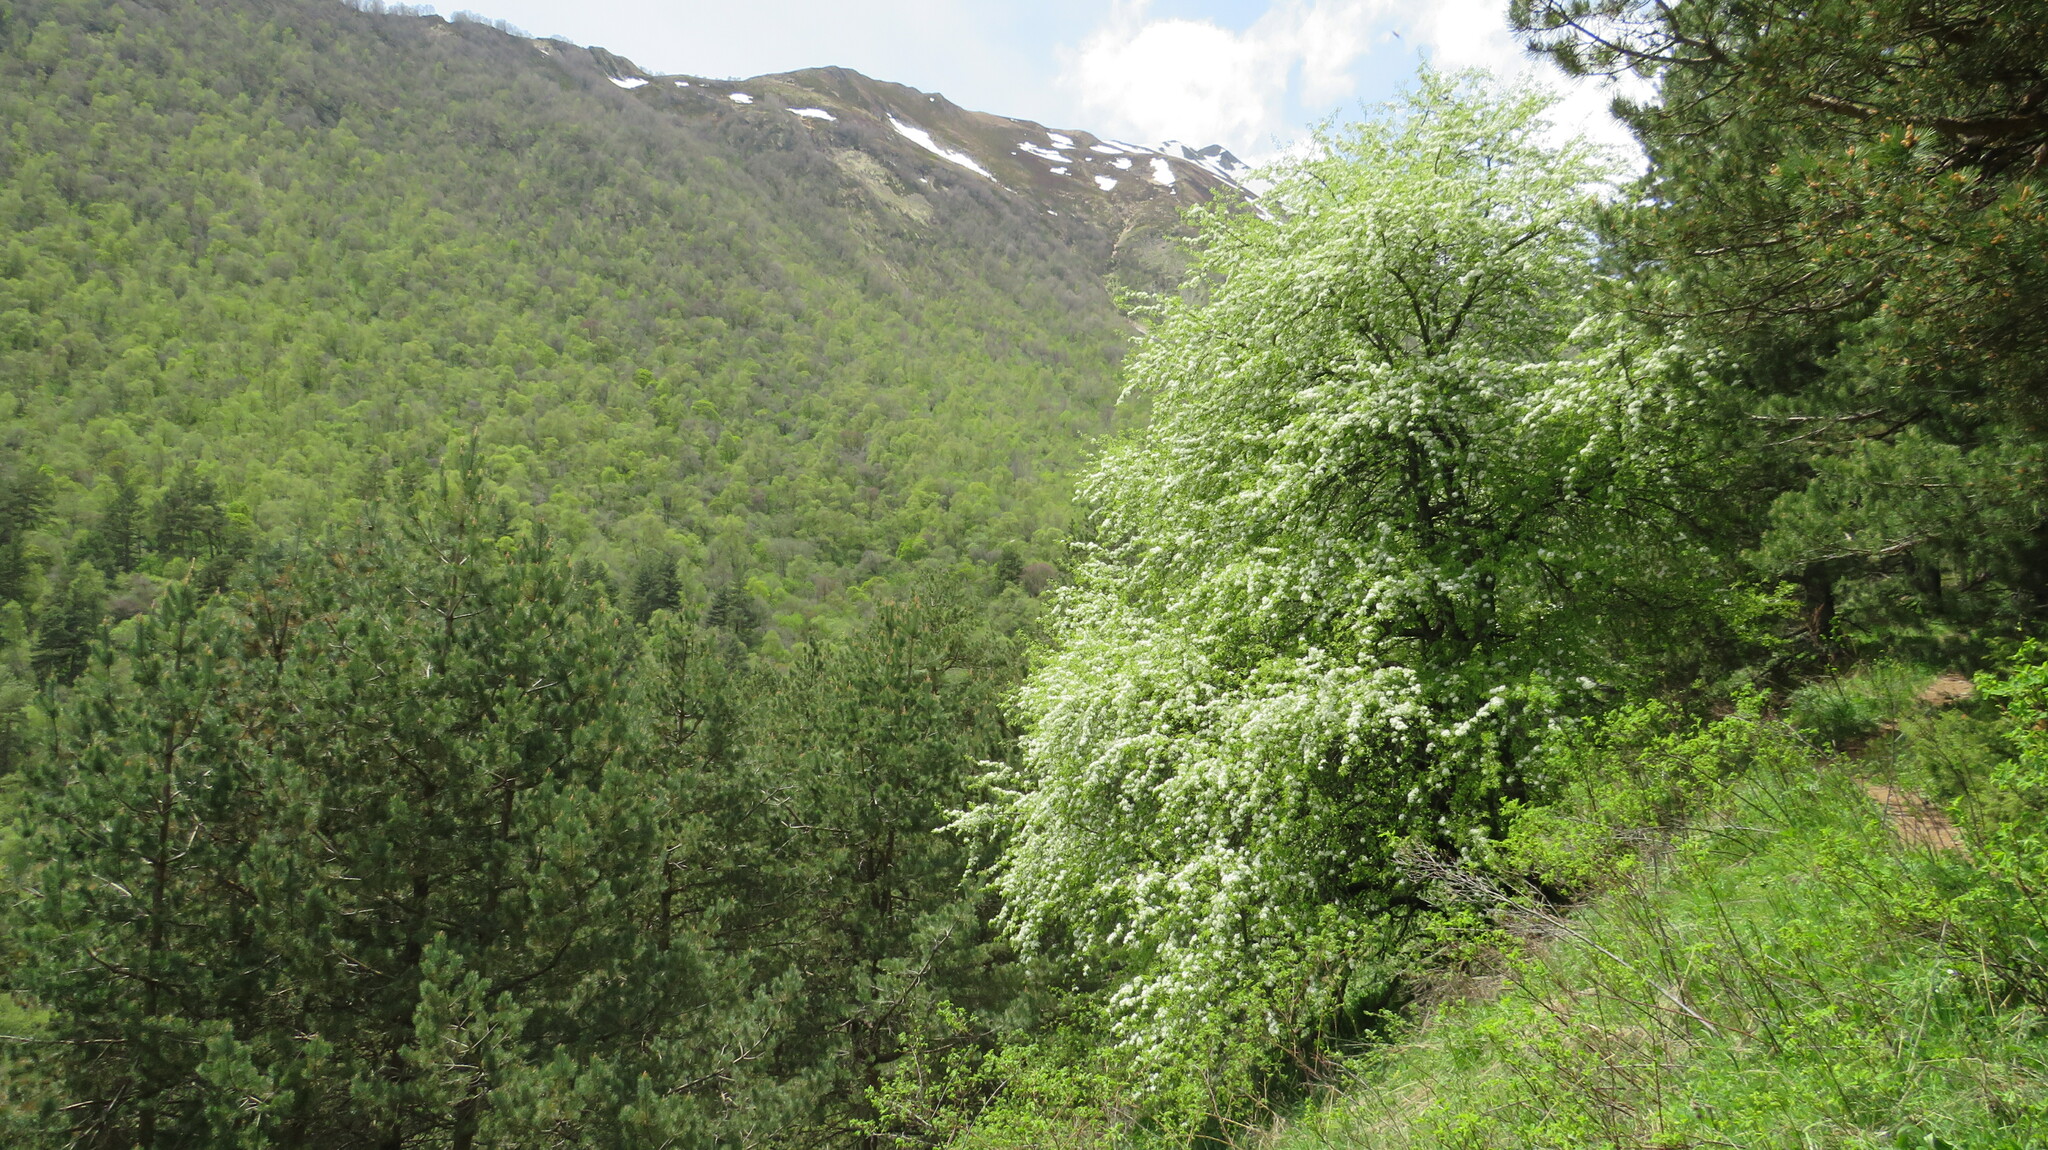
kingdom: Plantae
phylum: Tracheophyta
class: Magnoliopsida
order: Rosales
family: Rosaceae
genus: Prunus
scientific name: Prunus padus
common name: Bird cherry
